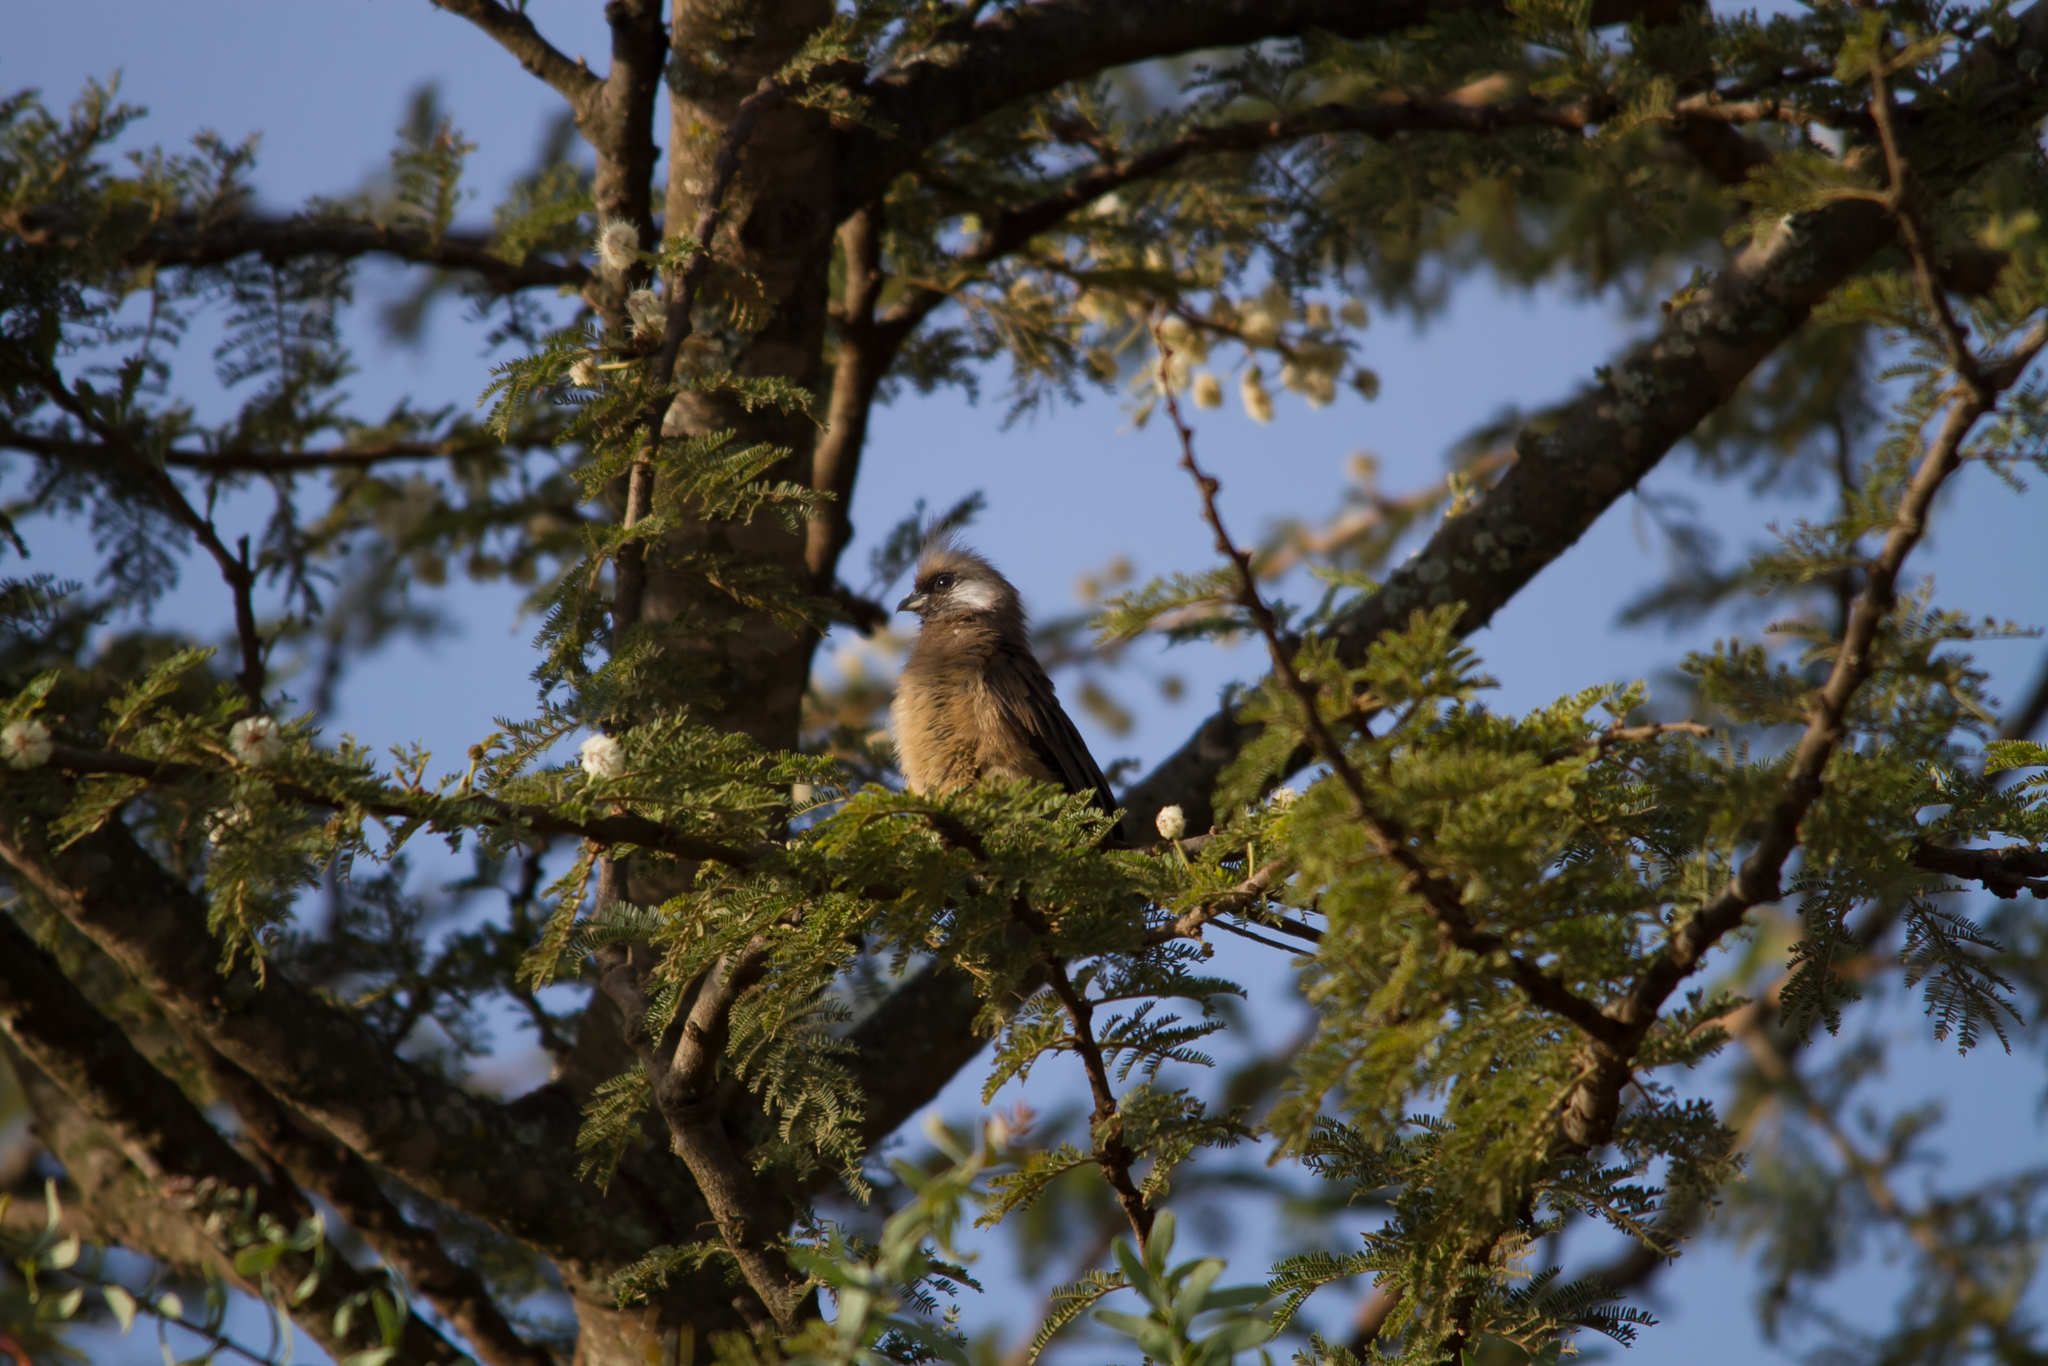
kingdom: Animalia
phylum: Chordata
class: Aves
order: Coliiformes
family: Coliidae
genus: Colius
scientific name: Colius striatus
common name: Speckled mousebird
